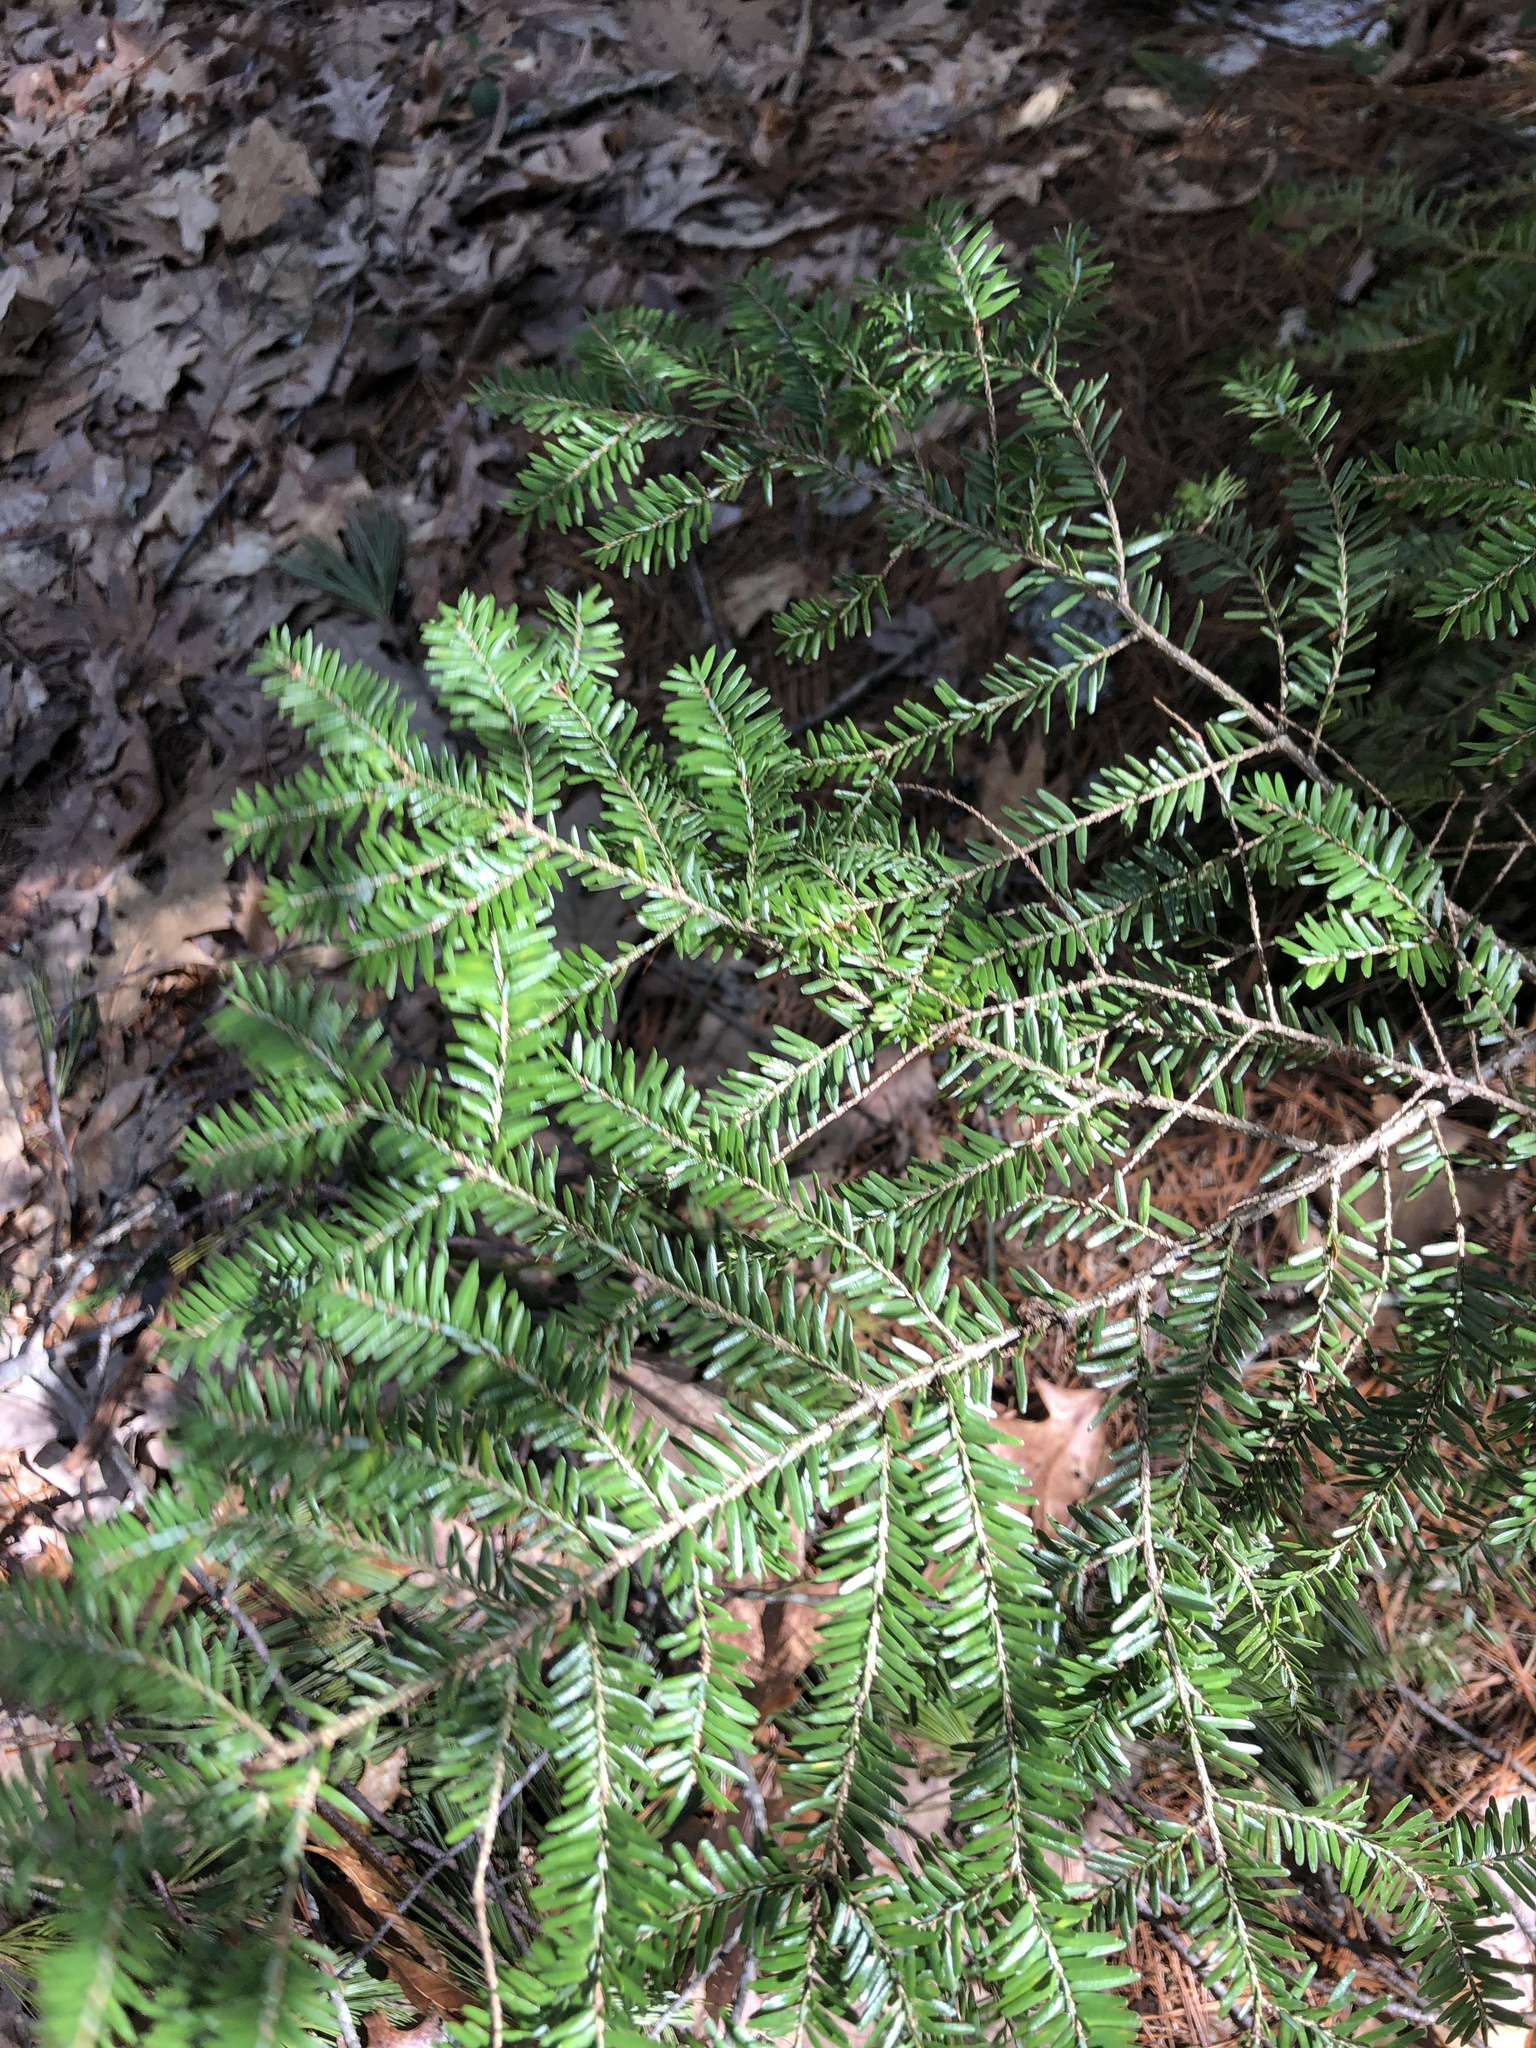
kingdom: Plantae
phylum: Tracheophyta
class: Pinopsida
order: Pinales
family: Pinaceae
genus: Tsuga
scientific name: Tsuga canadensis
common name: Eastern hemlock
